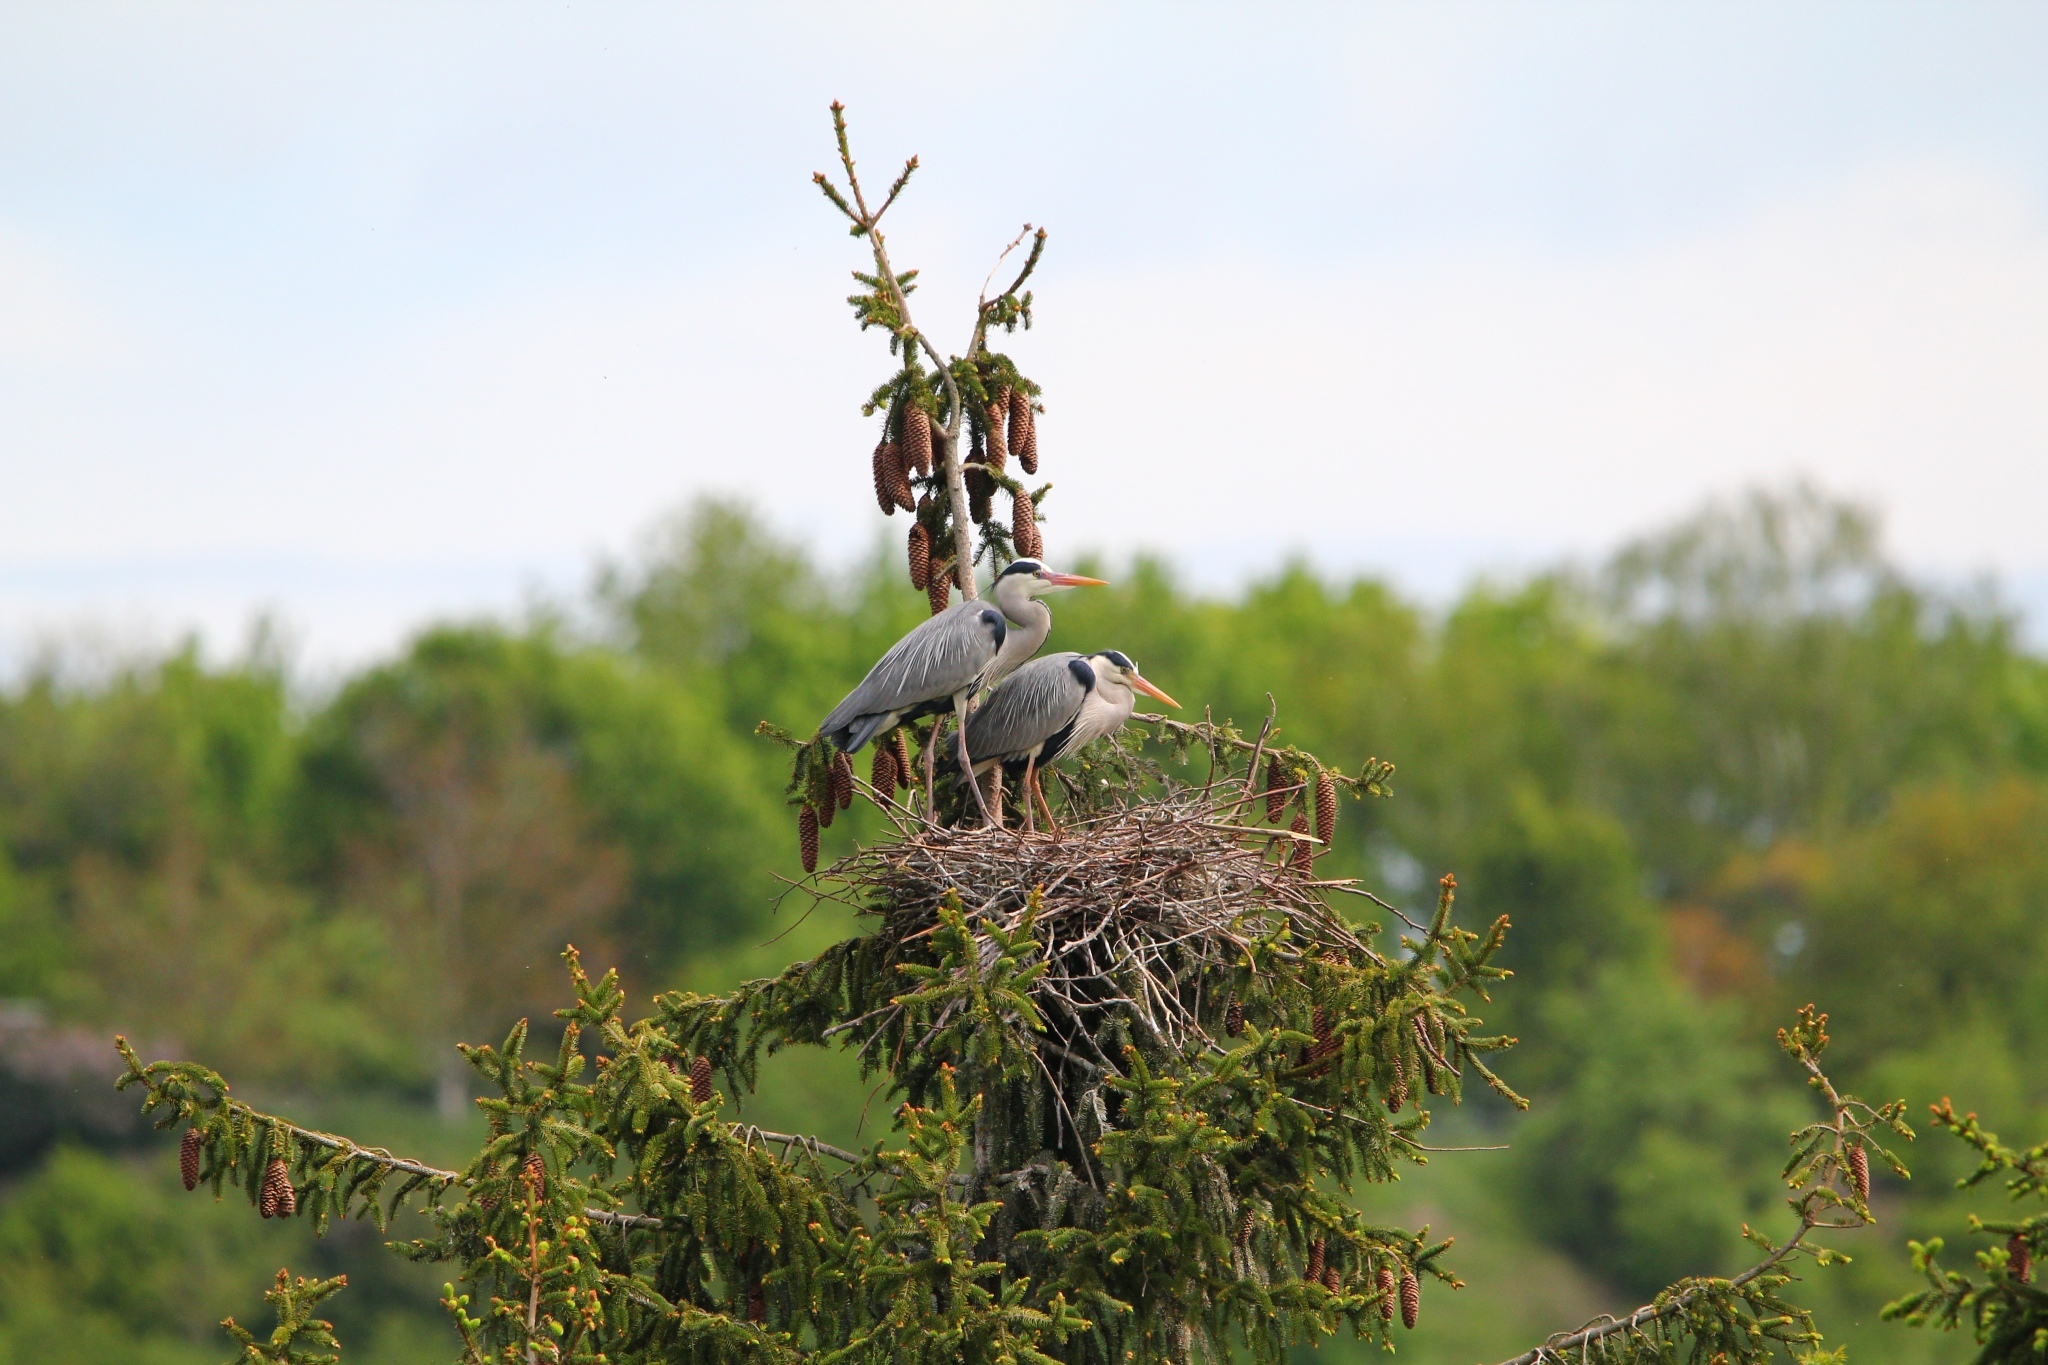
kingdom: Animalia
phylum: Chordata
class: Aves
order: Pelecaniformes
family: Ardeidae
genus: Ardea
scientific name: Ardea cinerea
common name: Grey heron
